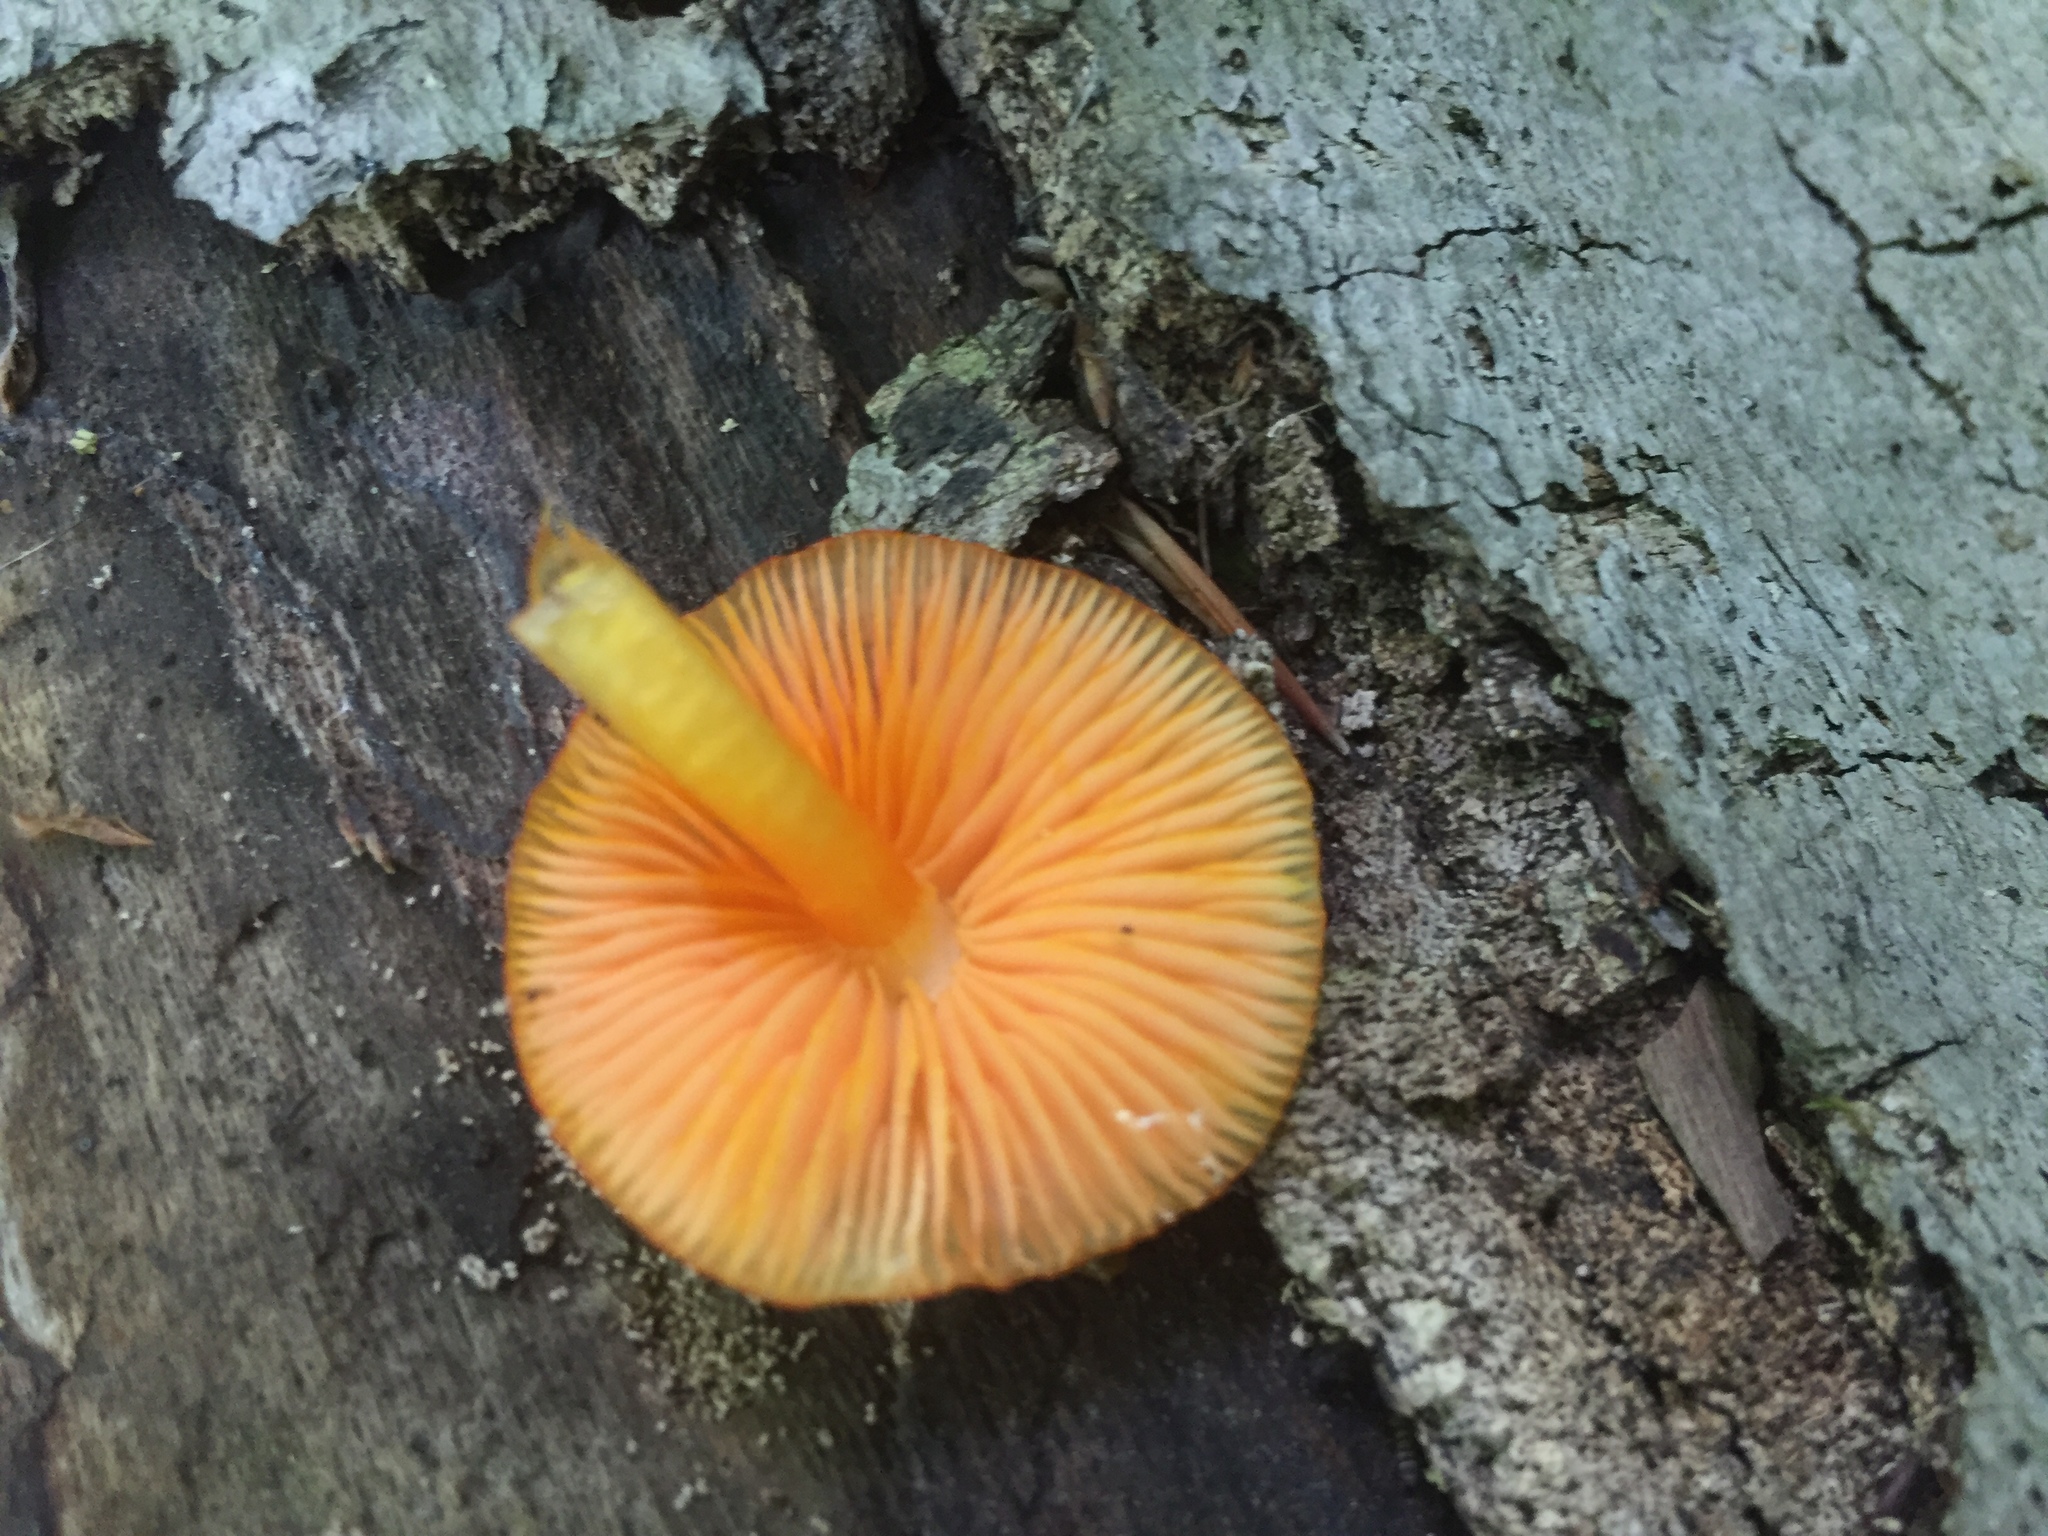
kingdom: Fungi
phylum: Basidiomycota
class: Agaricomycetes
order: Agaricales
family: Mycenaceae
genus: Mycena
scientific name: Mycena leaiana
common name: Orange mycena
